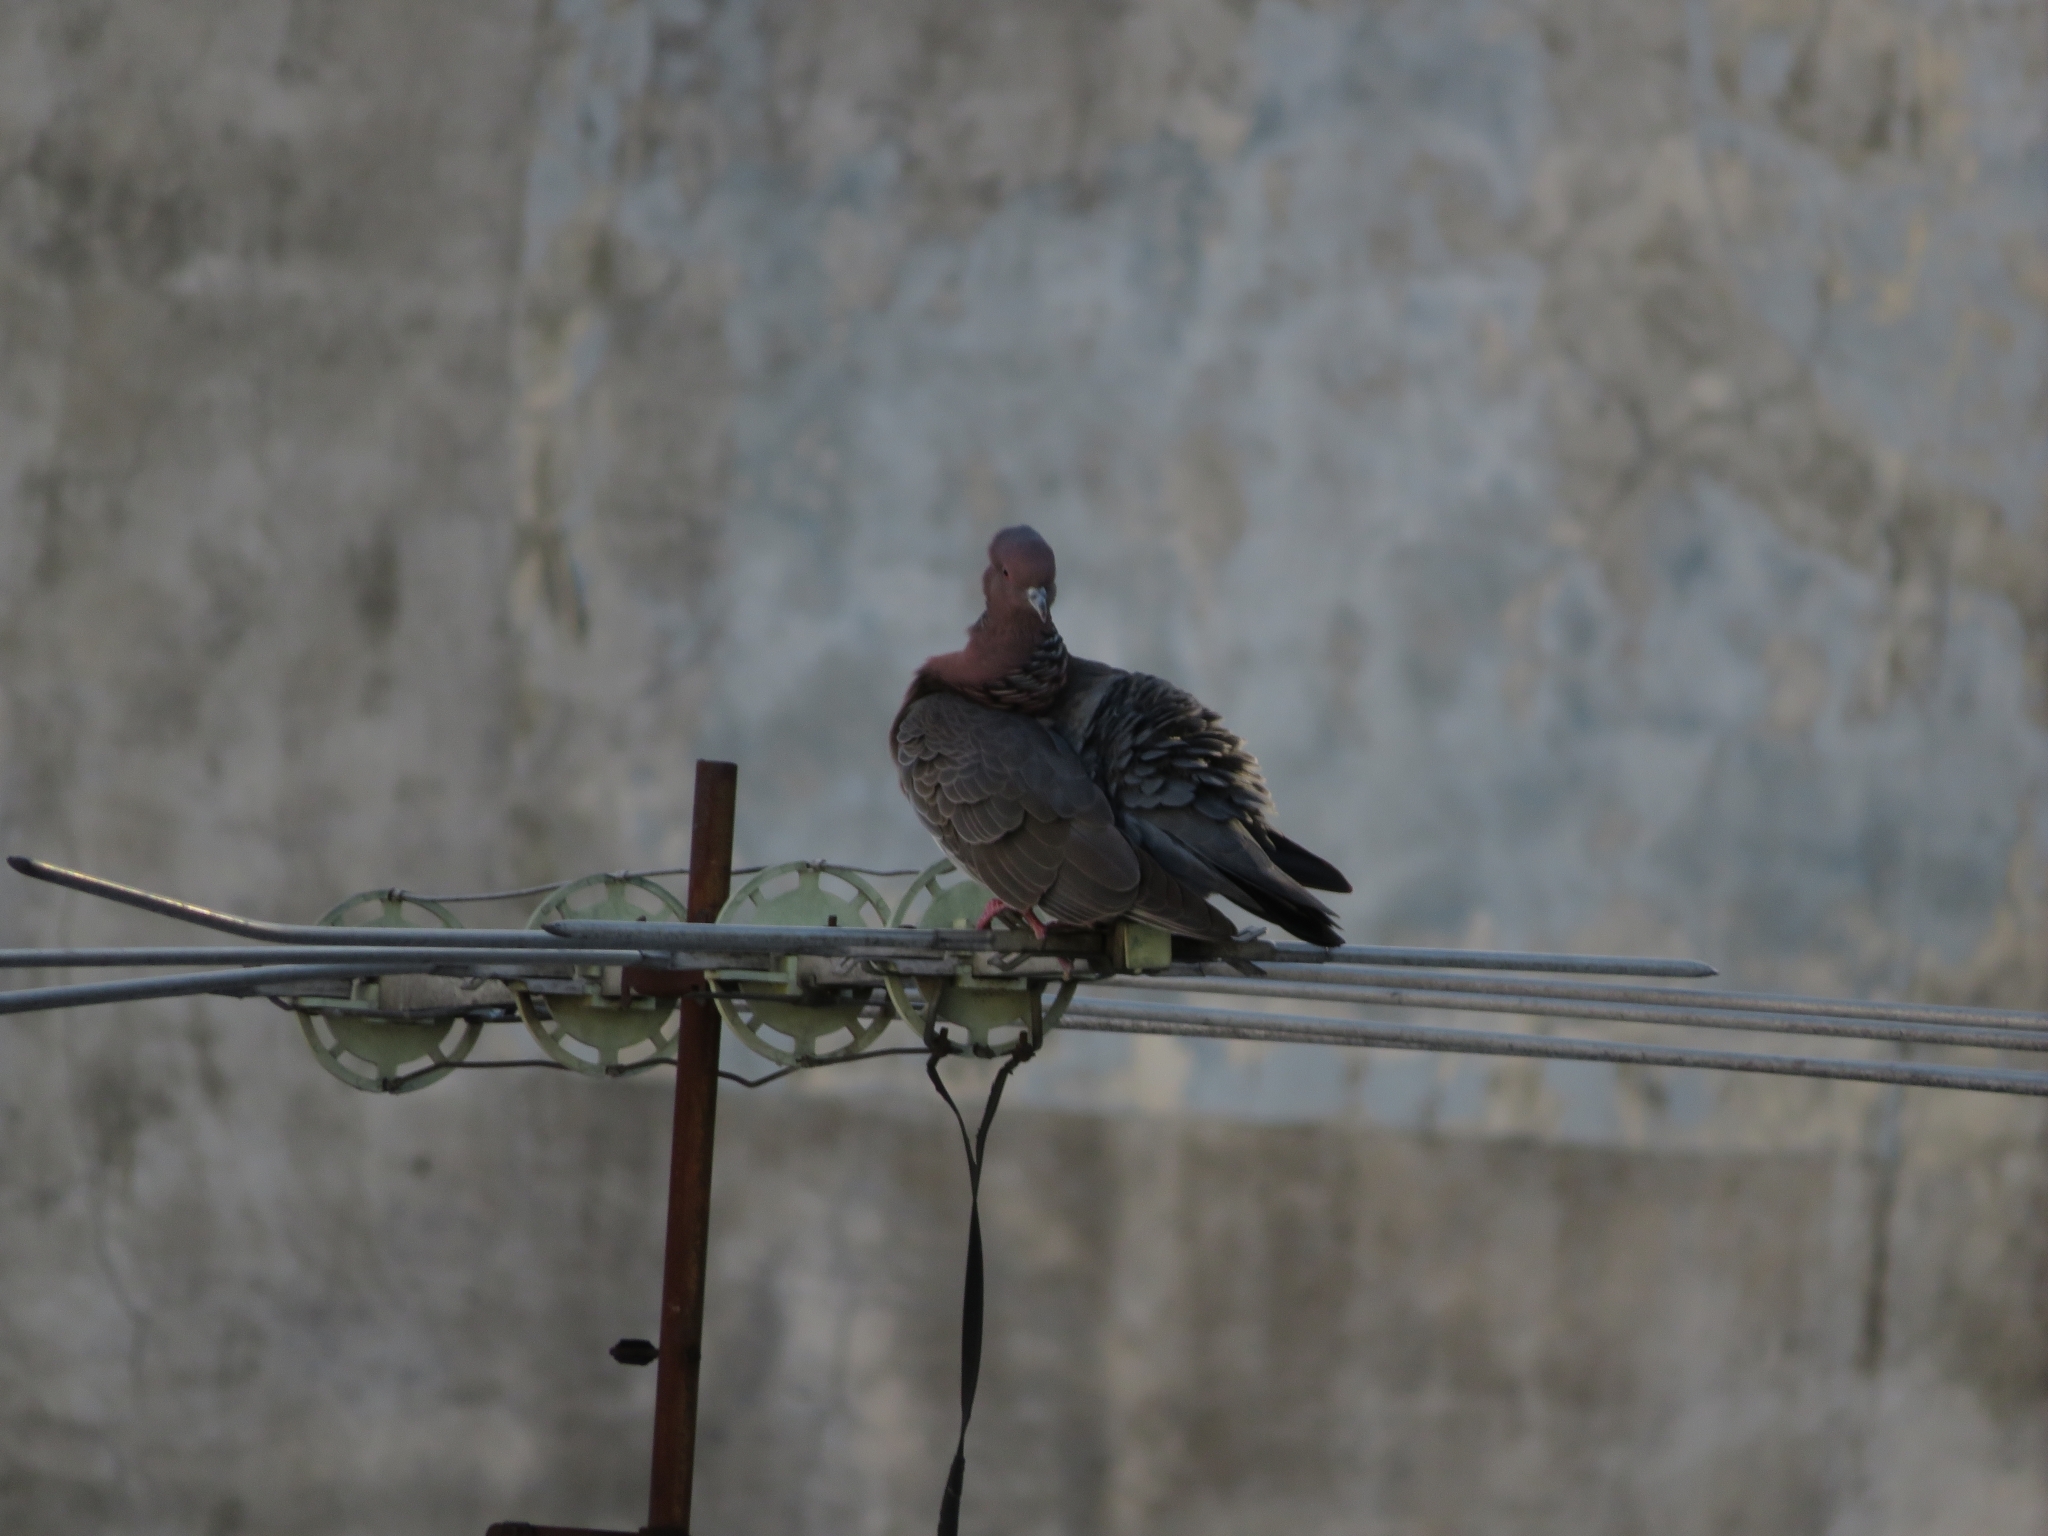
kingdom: Animalia
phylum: Chordata
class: Aves
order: Columbiformes
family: Columbidae
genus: Patagioenas
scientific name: Patagioenas picazuro
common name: Picazuro pigeon
